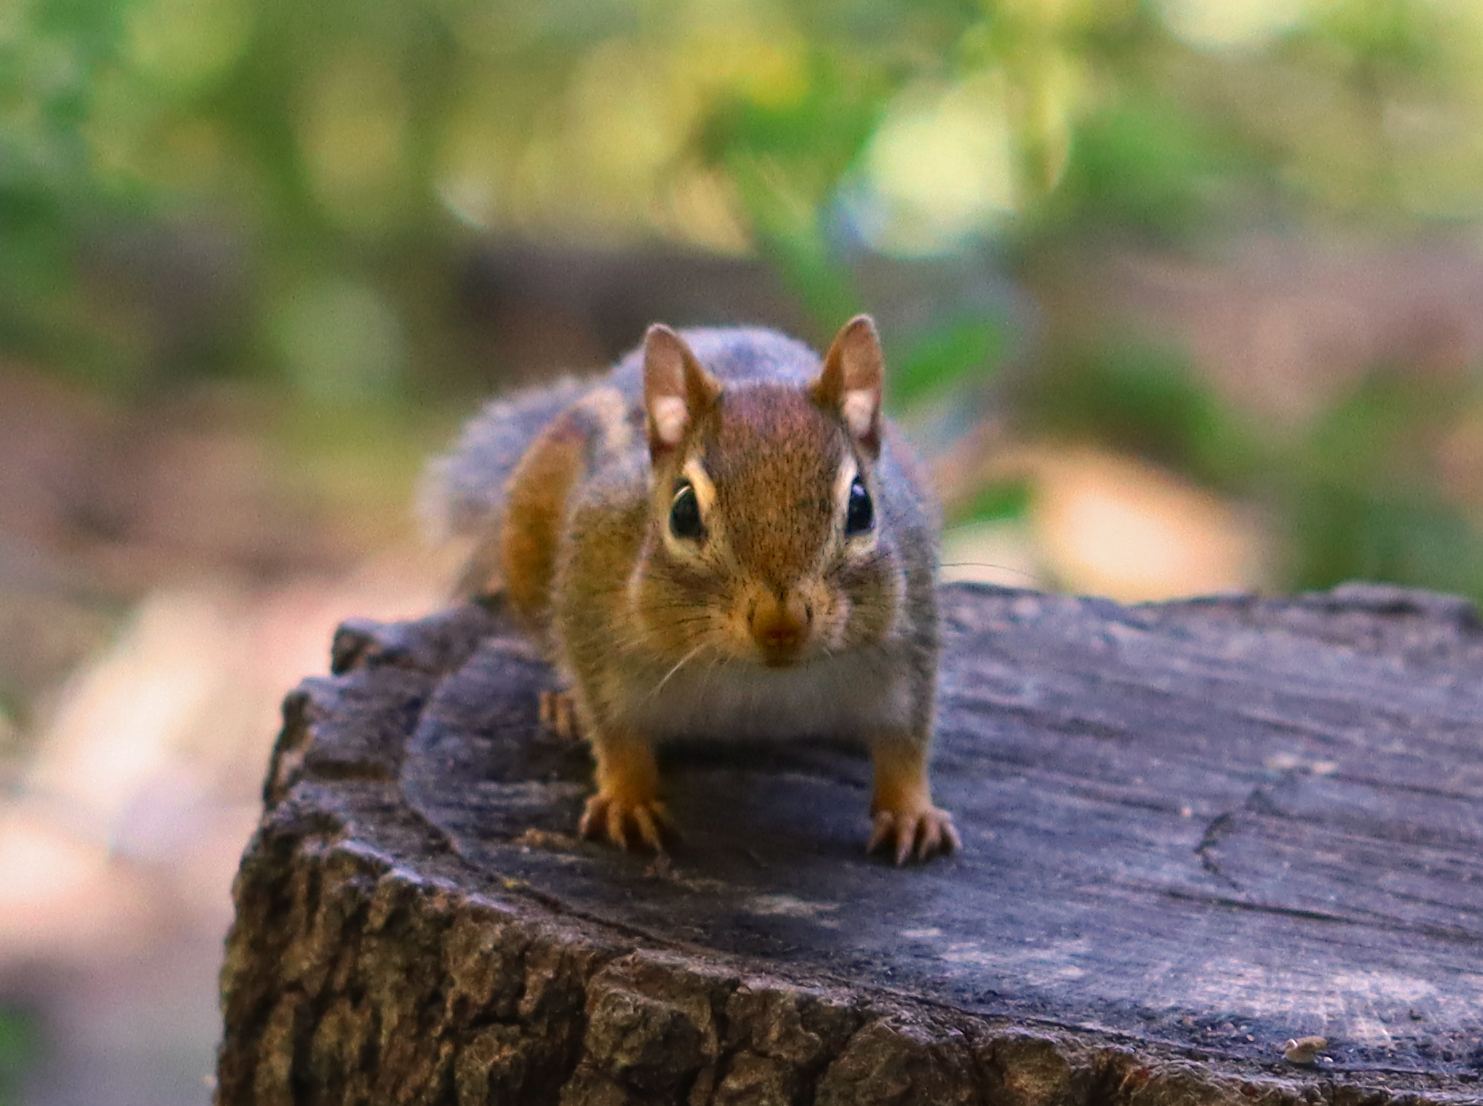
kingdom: Animalia
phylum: Chordata
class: Mammalia
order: Rodentia
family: Sciuridae
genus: Tamias
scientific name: Tamias striatus
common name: Eastern chipmunk
